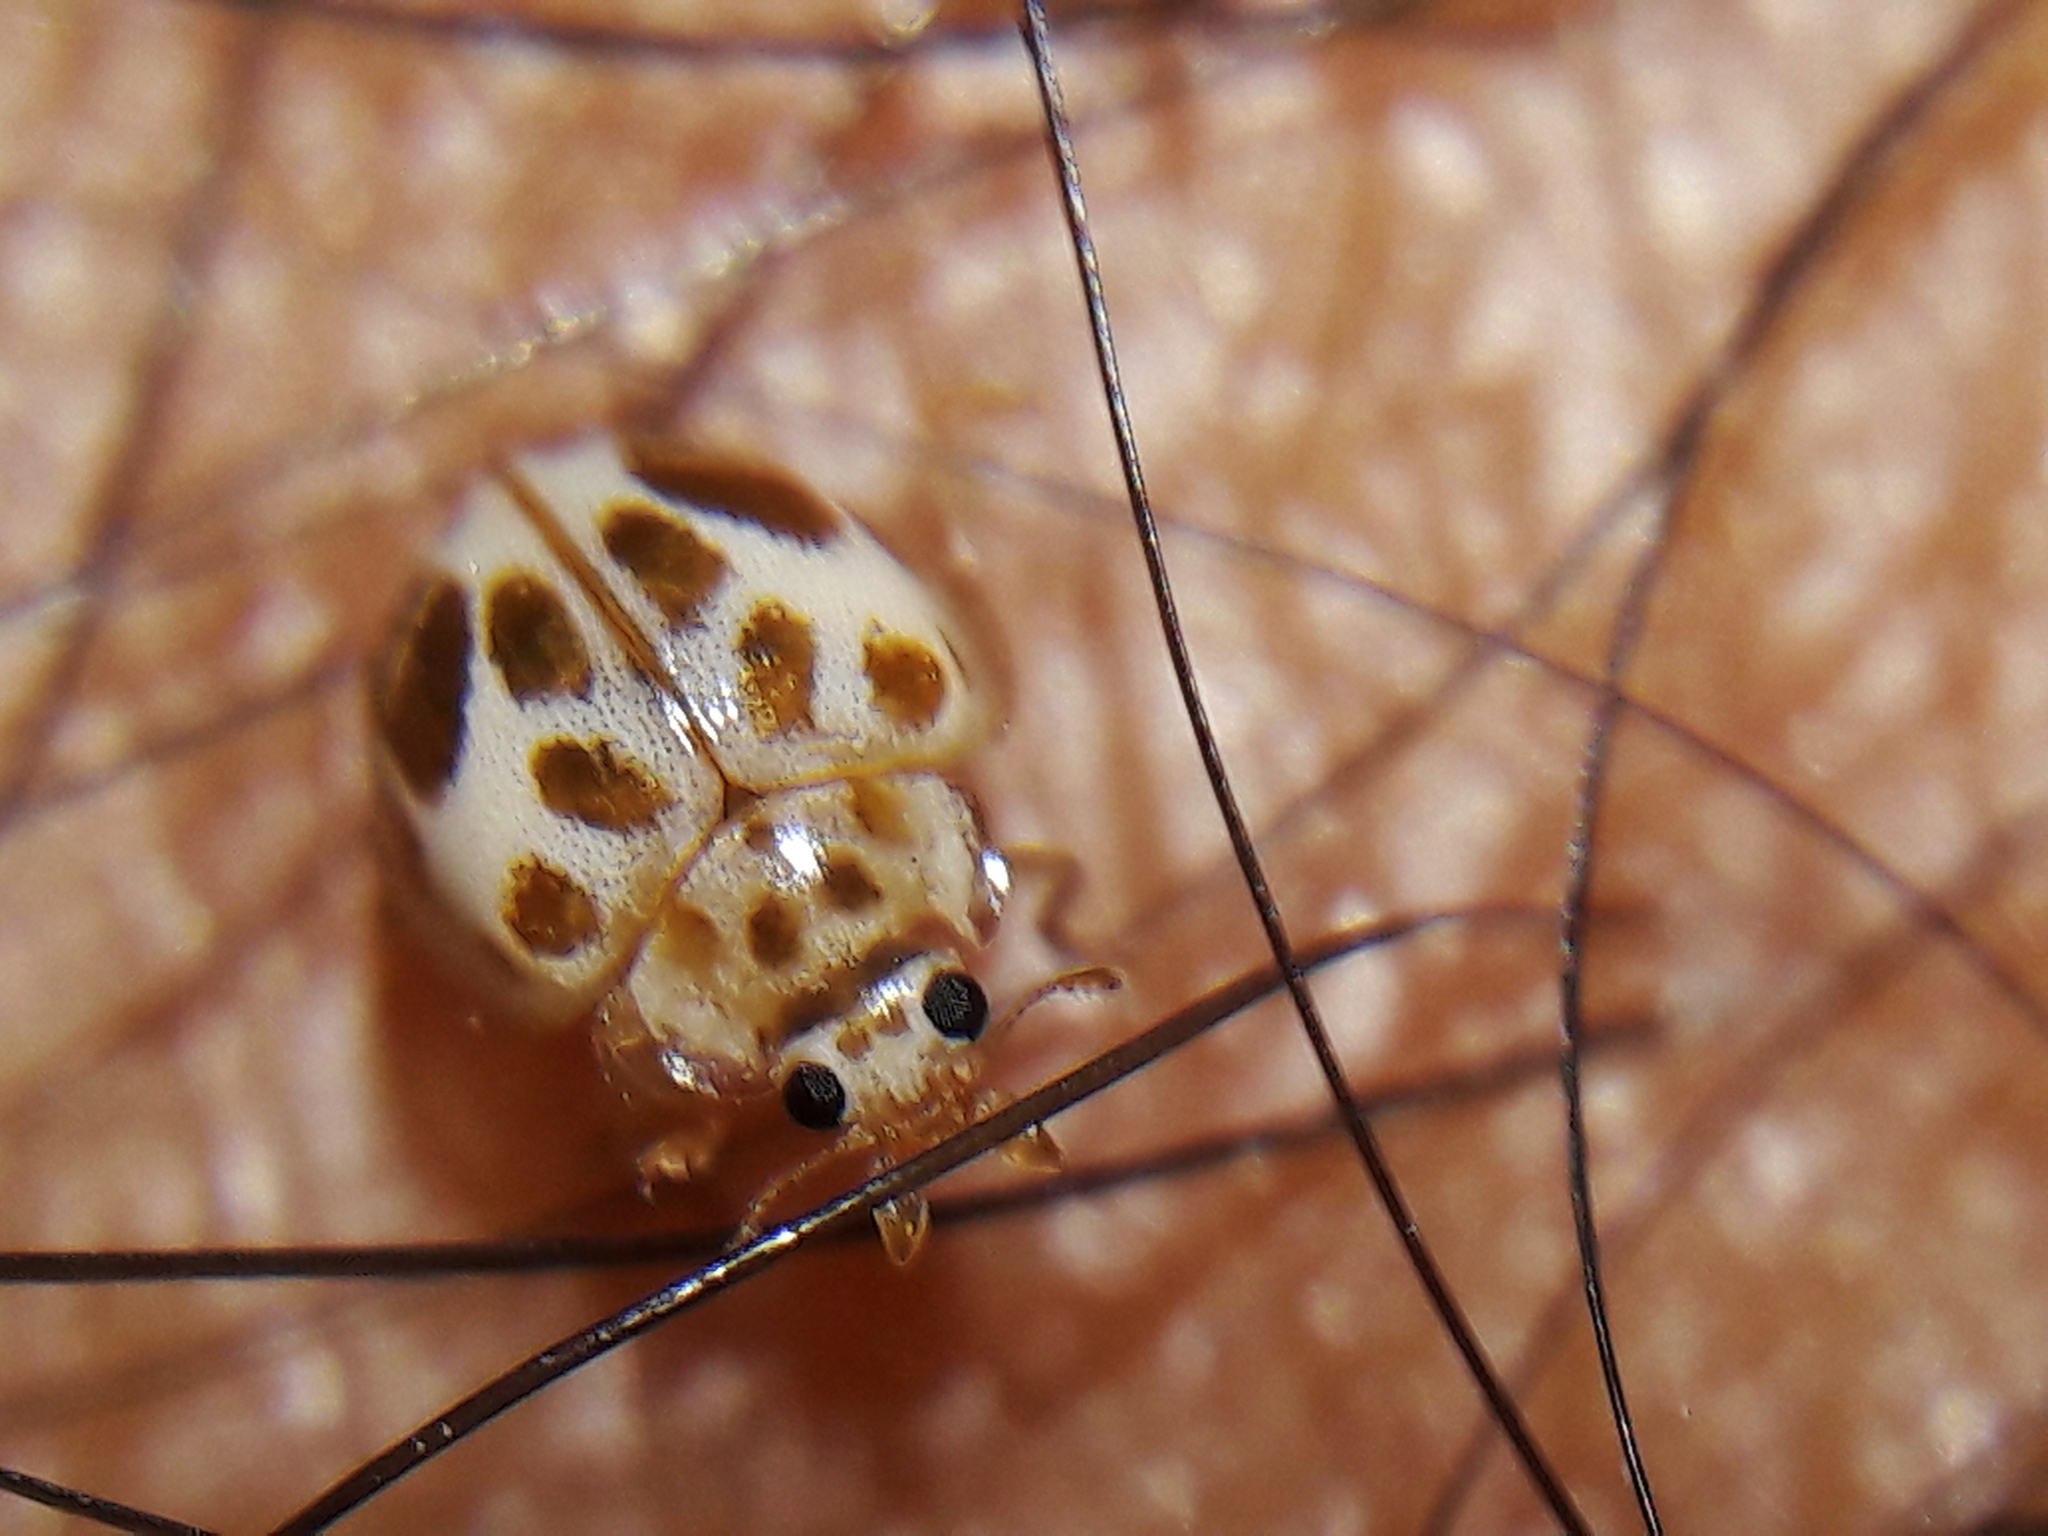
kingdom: Animalia
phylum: Arthropoda
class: Insecta
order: Coleoptera
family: Coccinellidae
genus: Psyllobora
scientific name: Psyllobora
